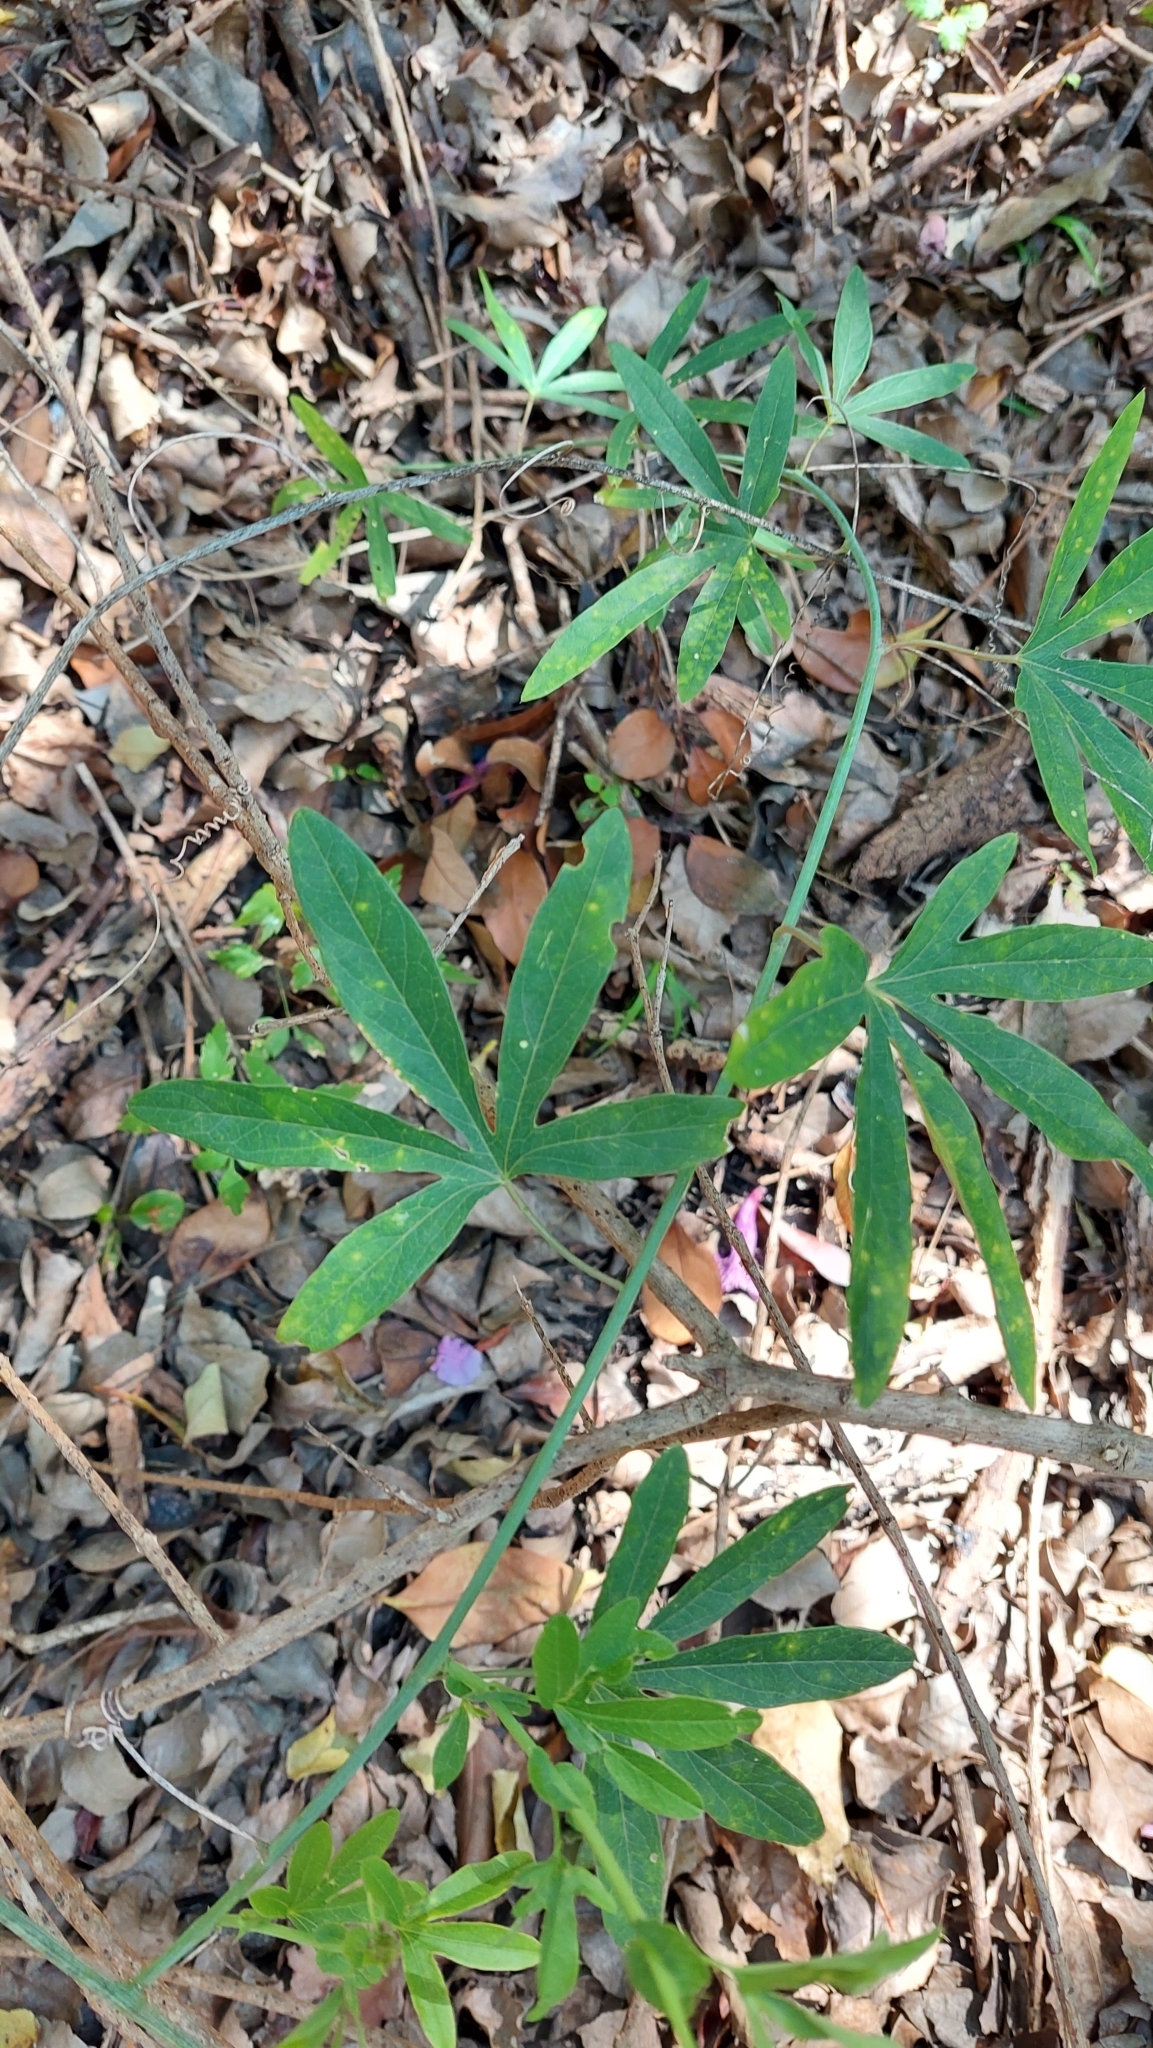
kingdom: Plantae
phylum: Tracheophyta
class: Magnoliopsida
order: Malpighiales
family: Passifloraceae
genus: Passiflora
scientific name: Passiflora caerulea
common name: Blue passionflower
